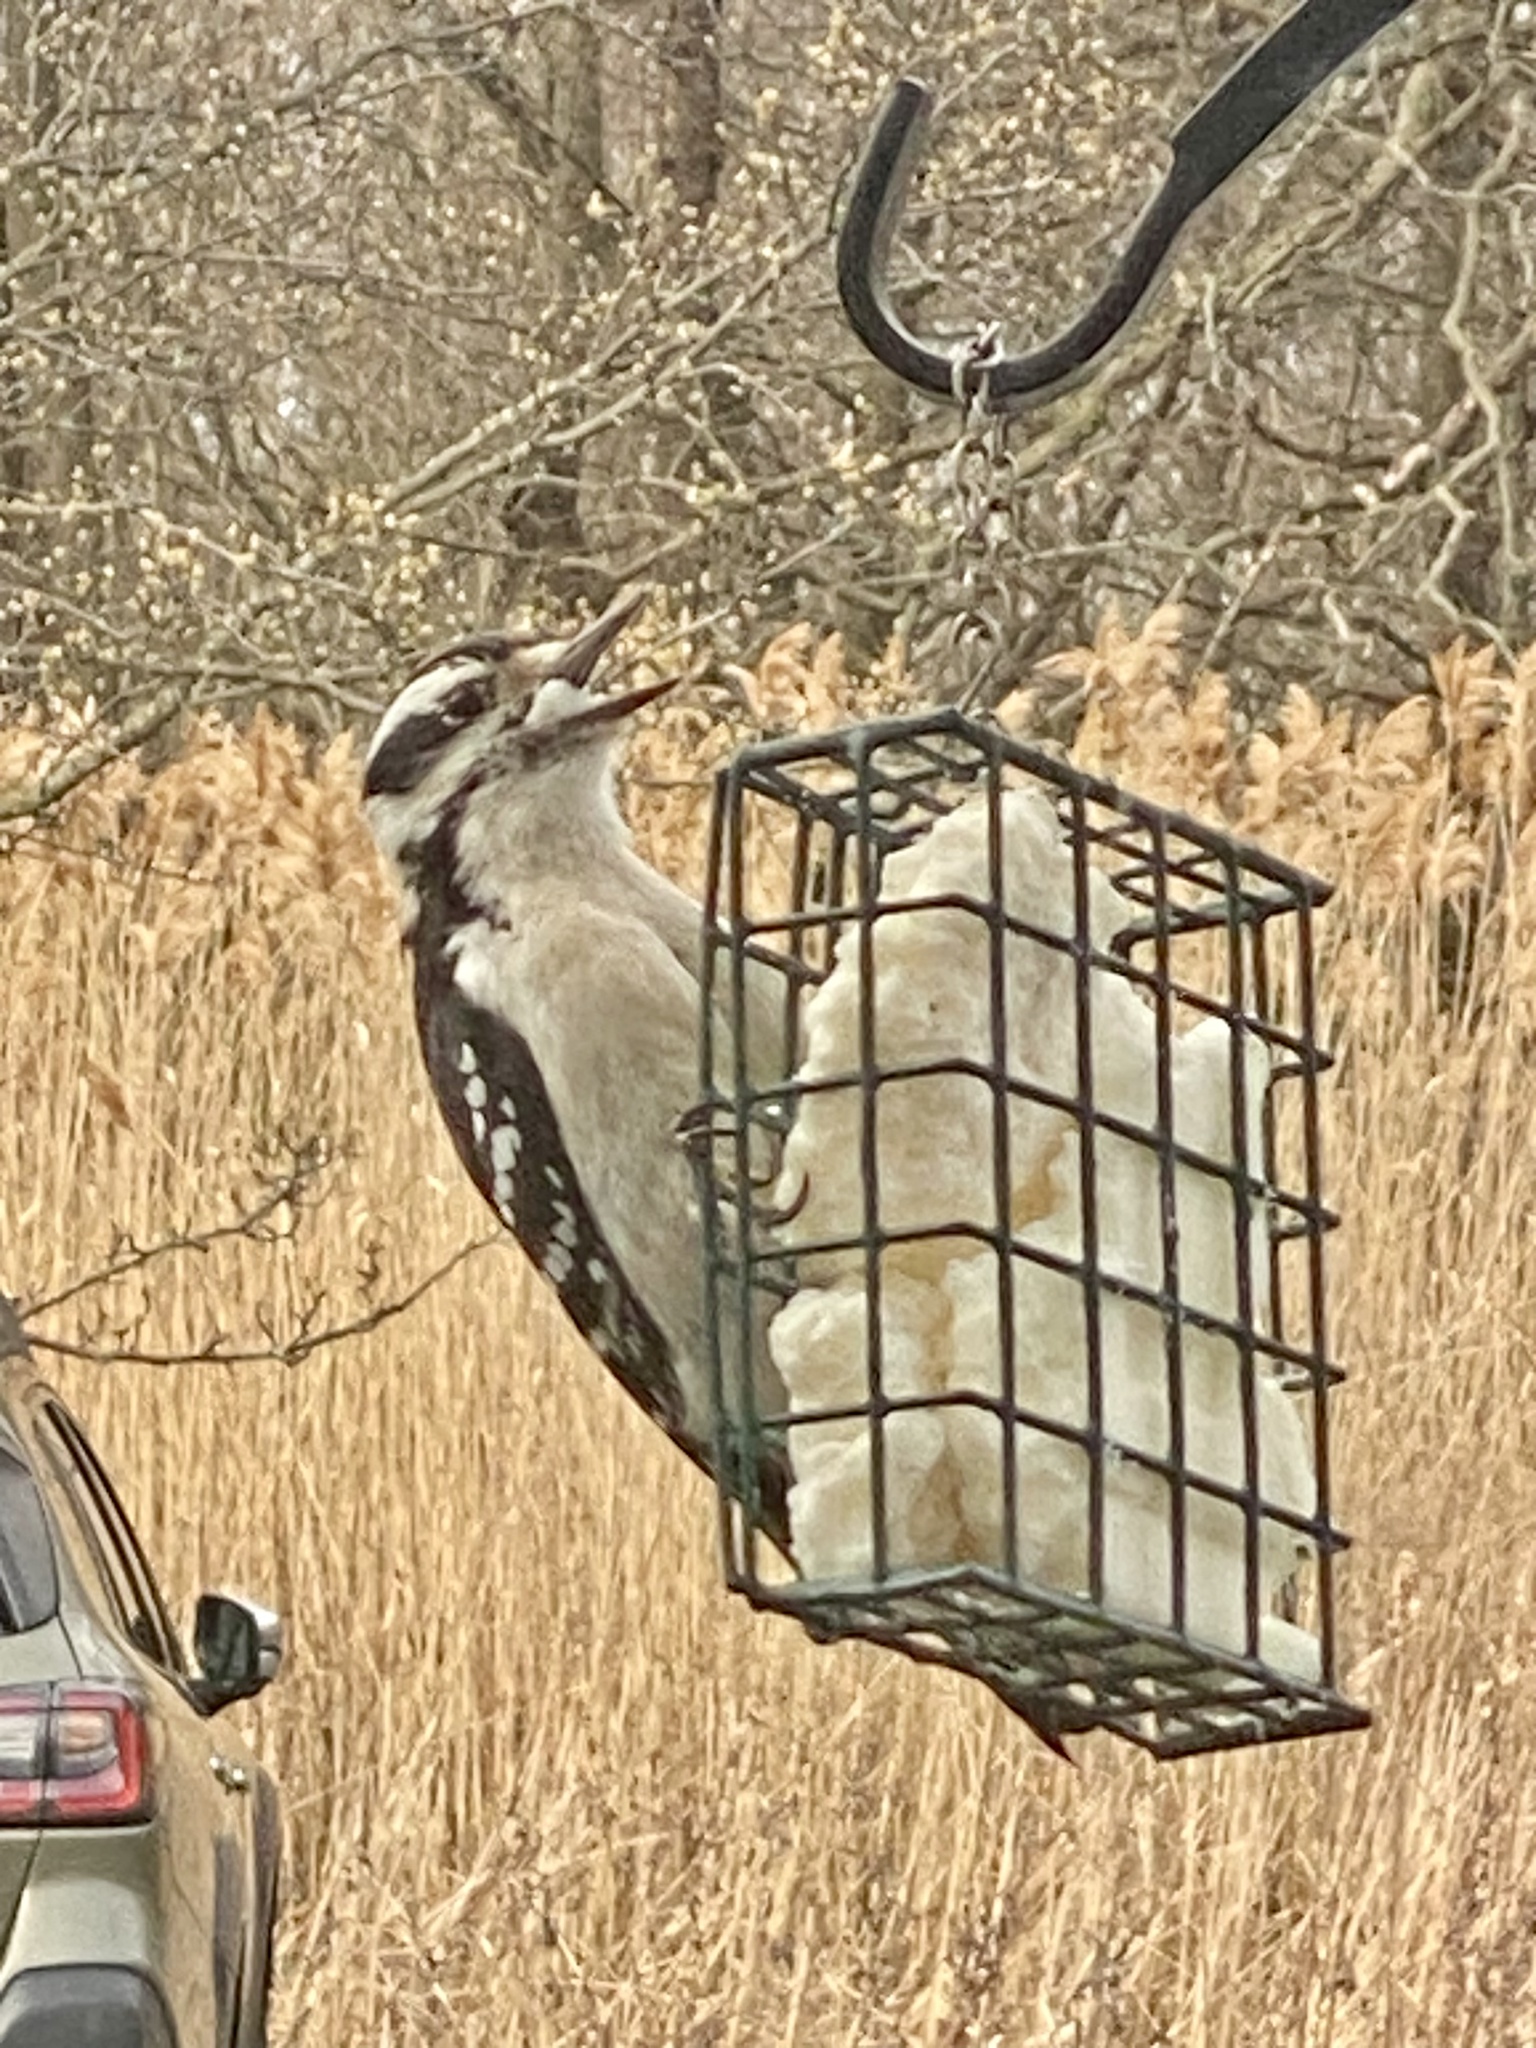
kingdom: Animalia
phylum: Chordata
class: Aves
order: Piciformes
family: Picidae
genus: Leuconotopicus
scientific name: Leuconotopicus villosus
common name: Hairy woodpecker
